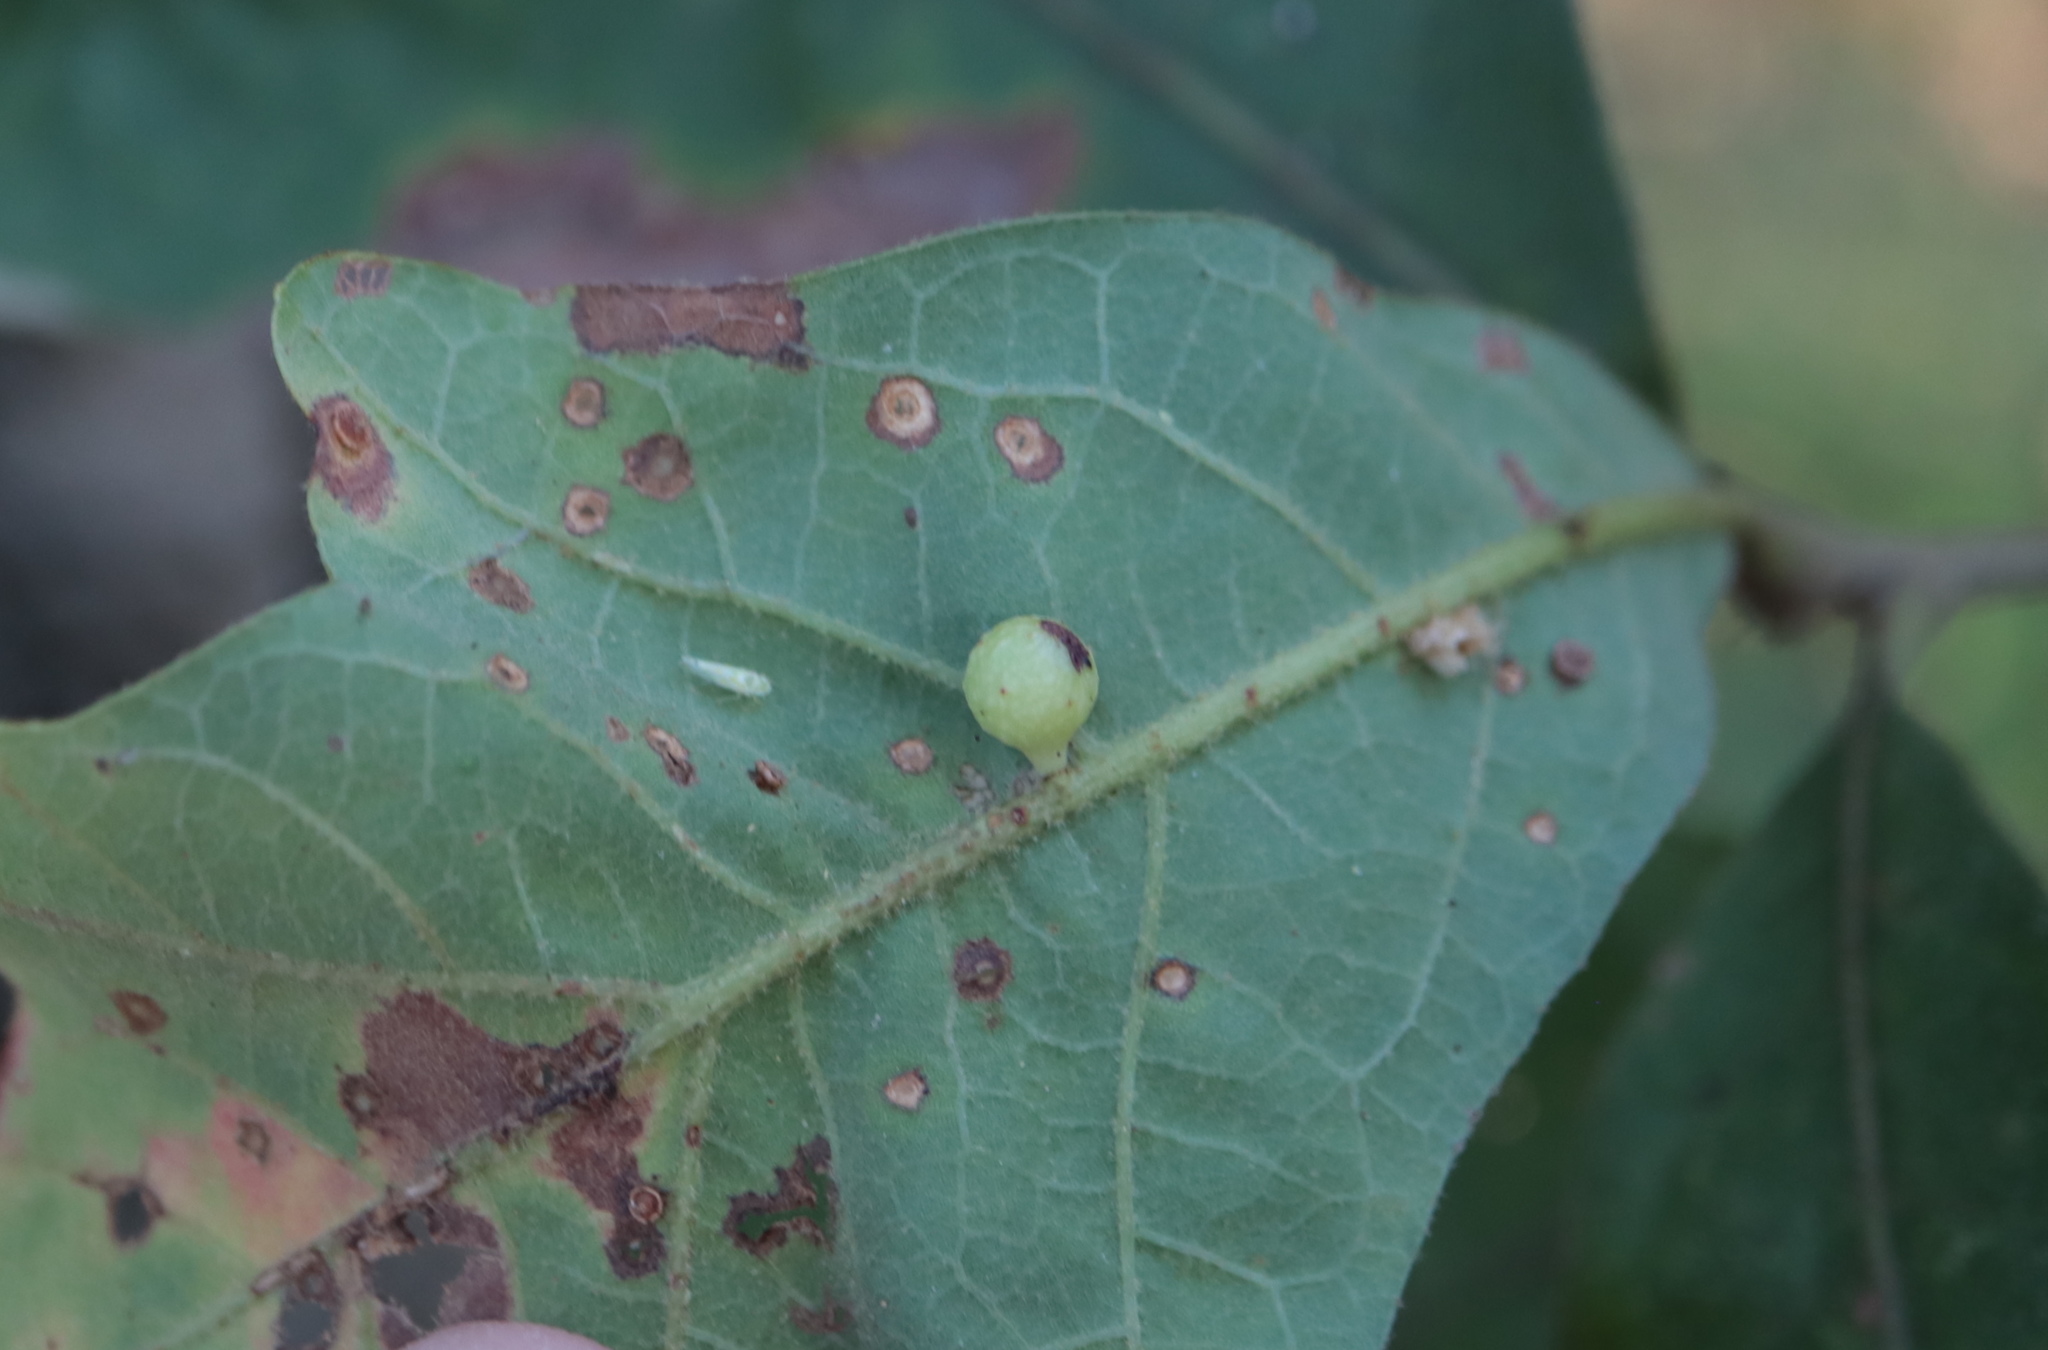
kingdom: Animalia
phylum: Arthropoda
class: Insecta
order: Hymenoptera
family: Cynipidae
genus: Andricus
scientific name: Andricus
